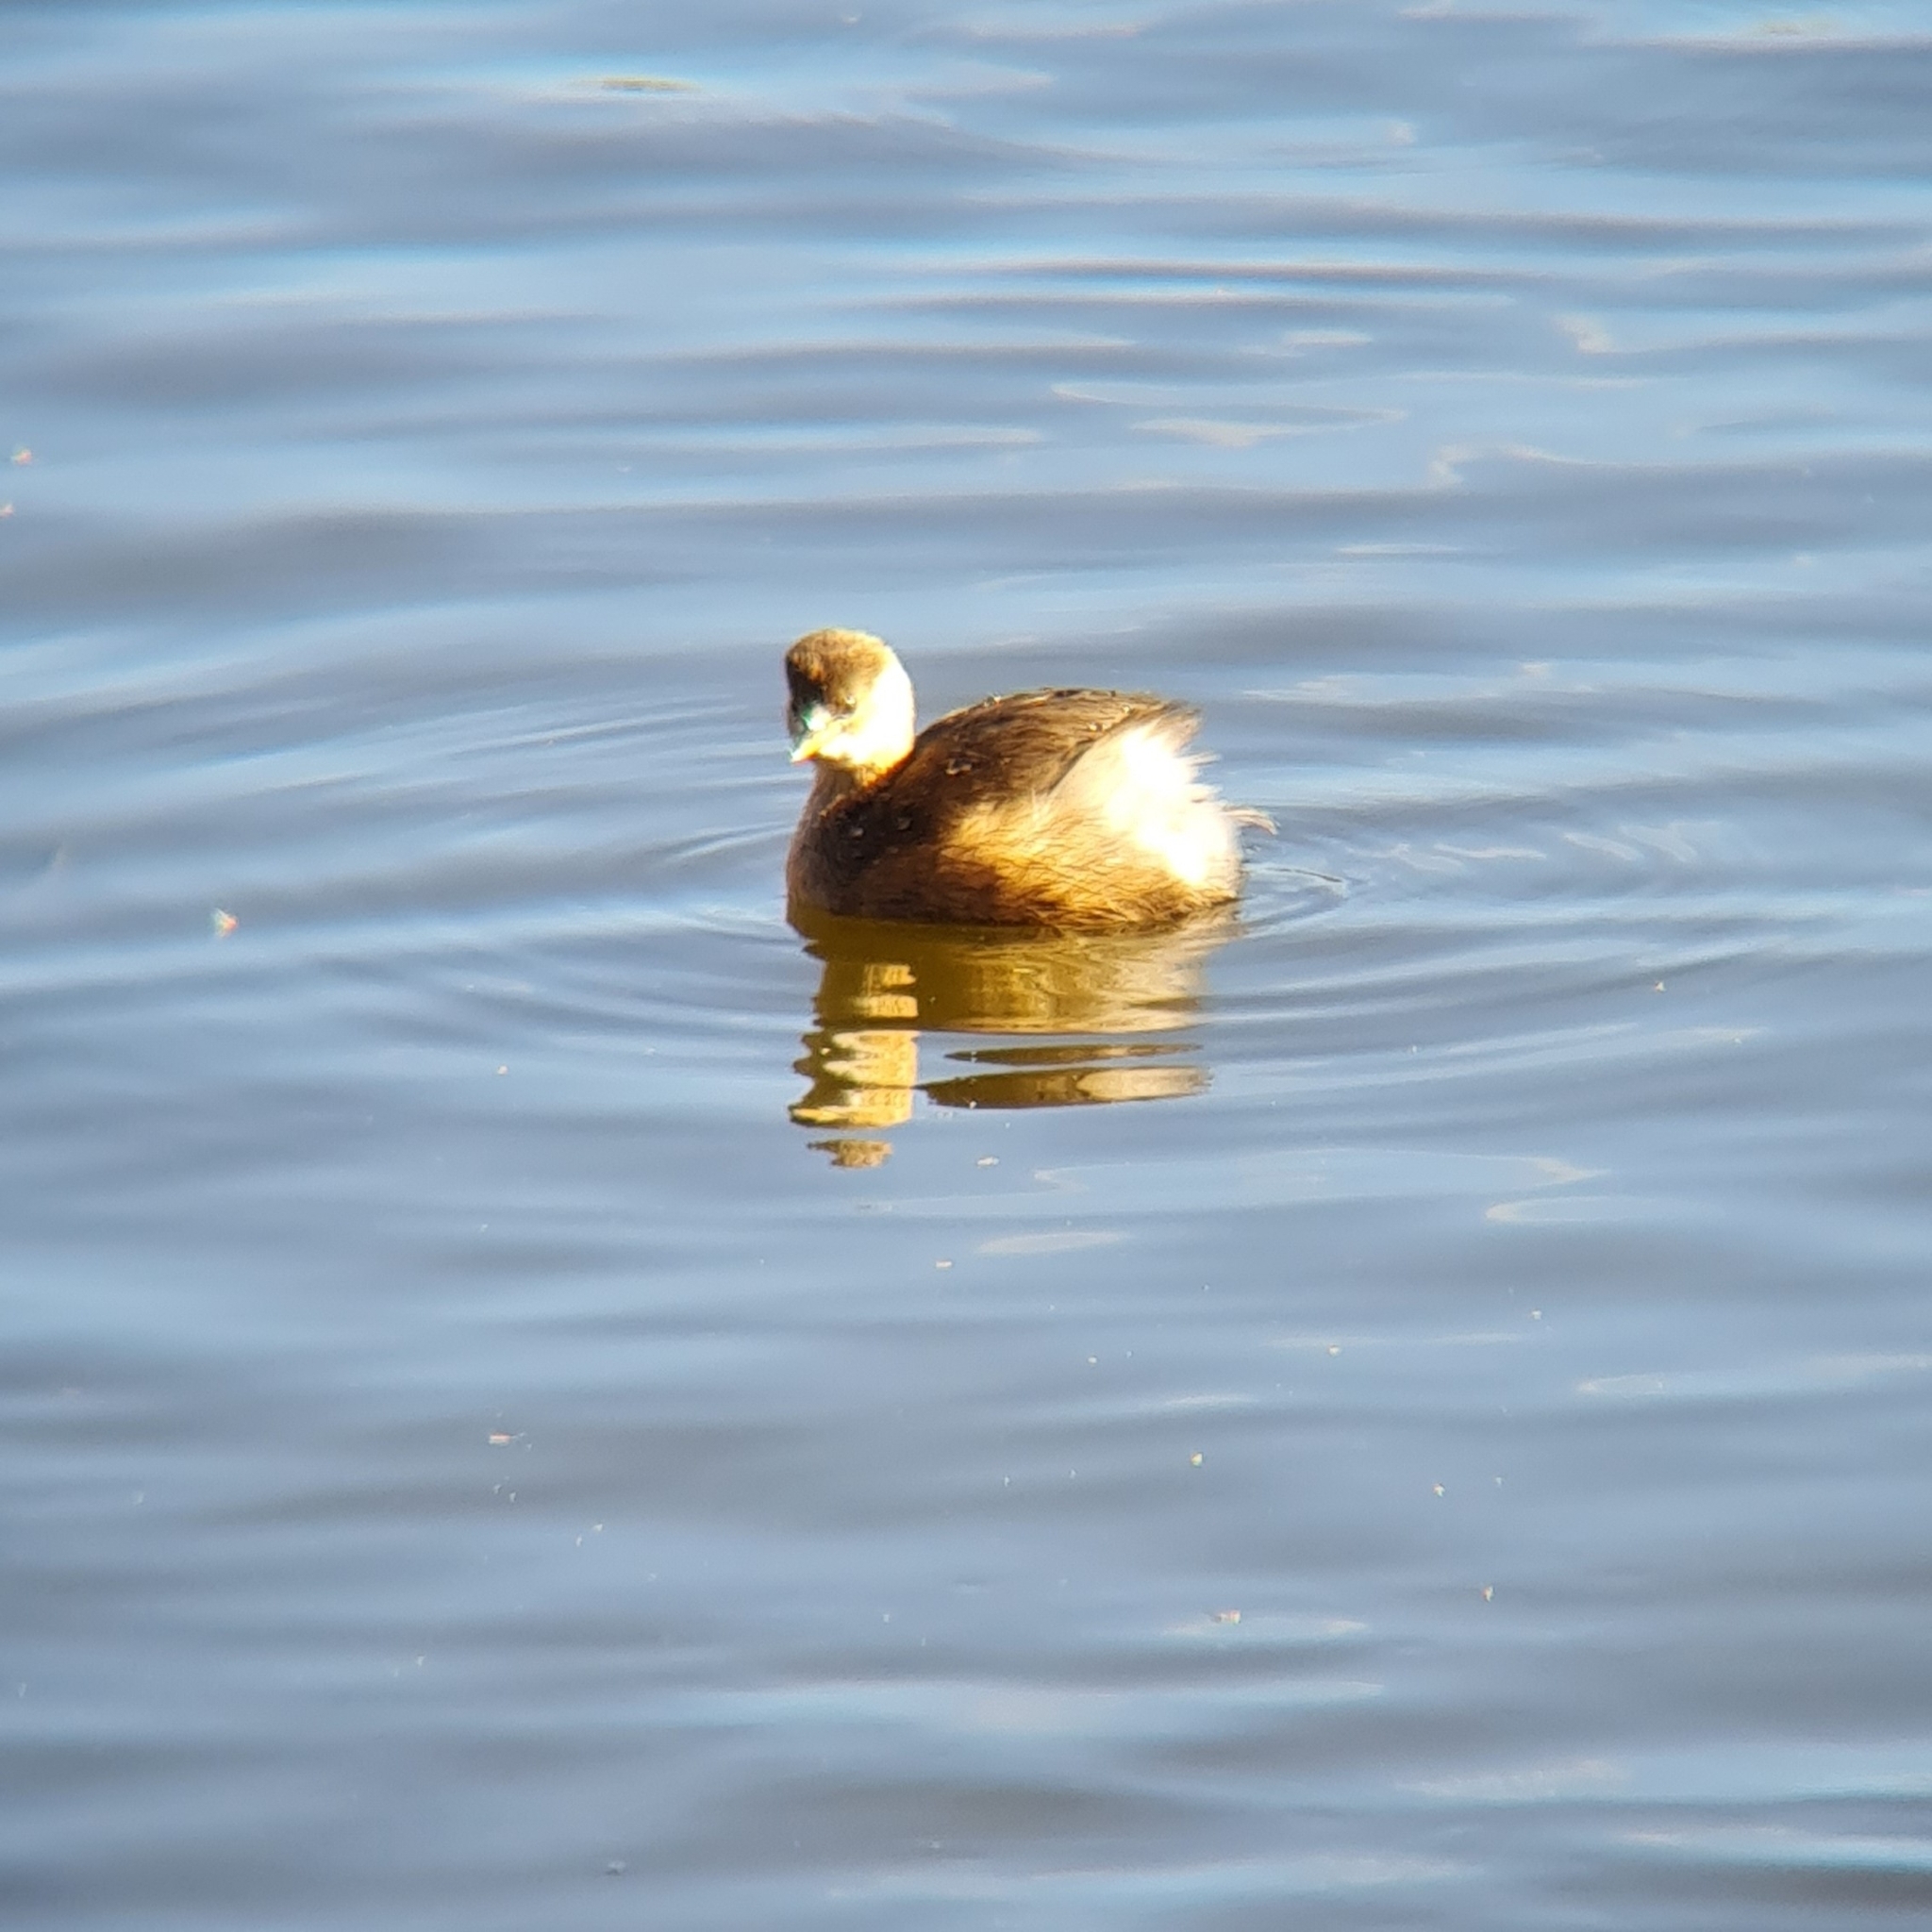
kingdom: Animalia
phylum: Chordata
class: Aves
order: Podicipediformes
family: Podicipedidae
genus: Tachybaptus
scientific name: Tachybaptus ruficollis
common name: Little grebe
